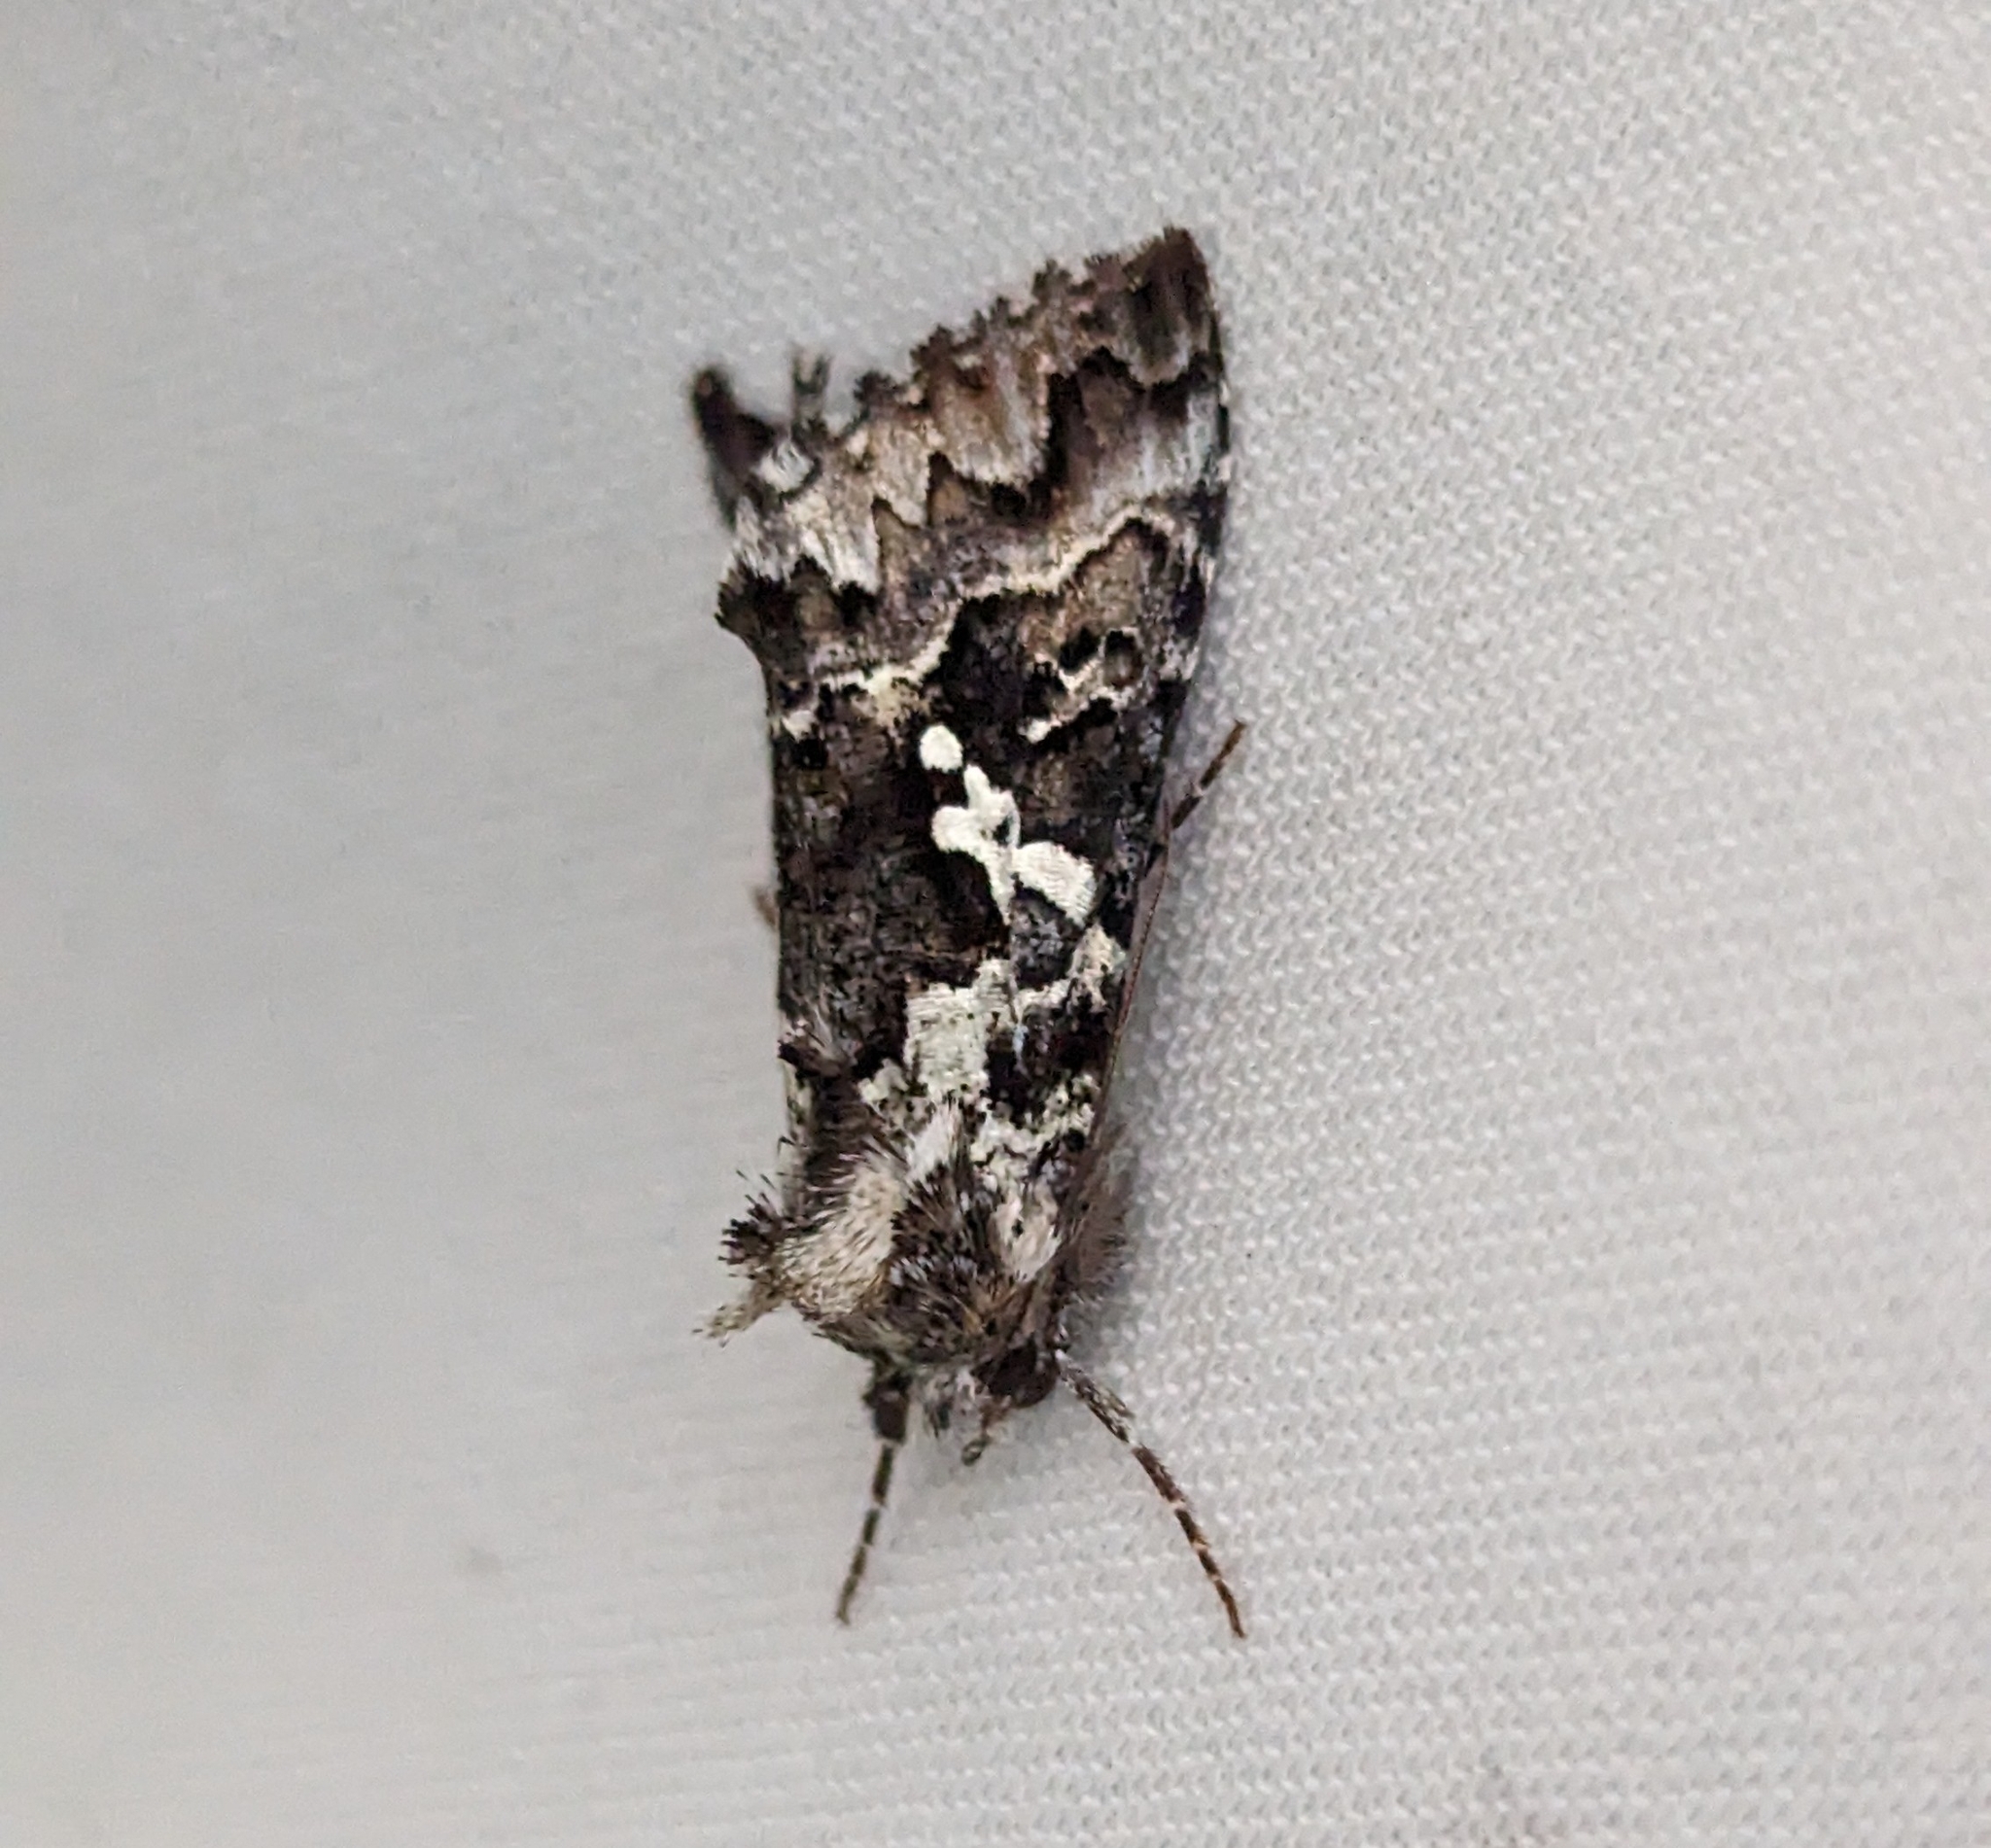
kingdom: Animalia
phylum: Arthropoda
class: Insecta
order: Lepidoptera
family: Noctuidae
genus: Syngrapha
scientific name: Syngrapha rectangula
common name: Angulated cutworm
